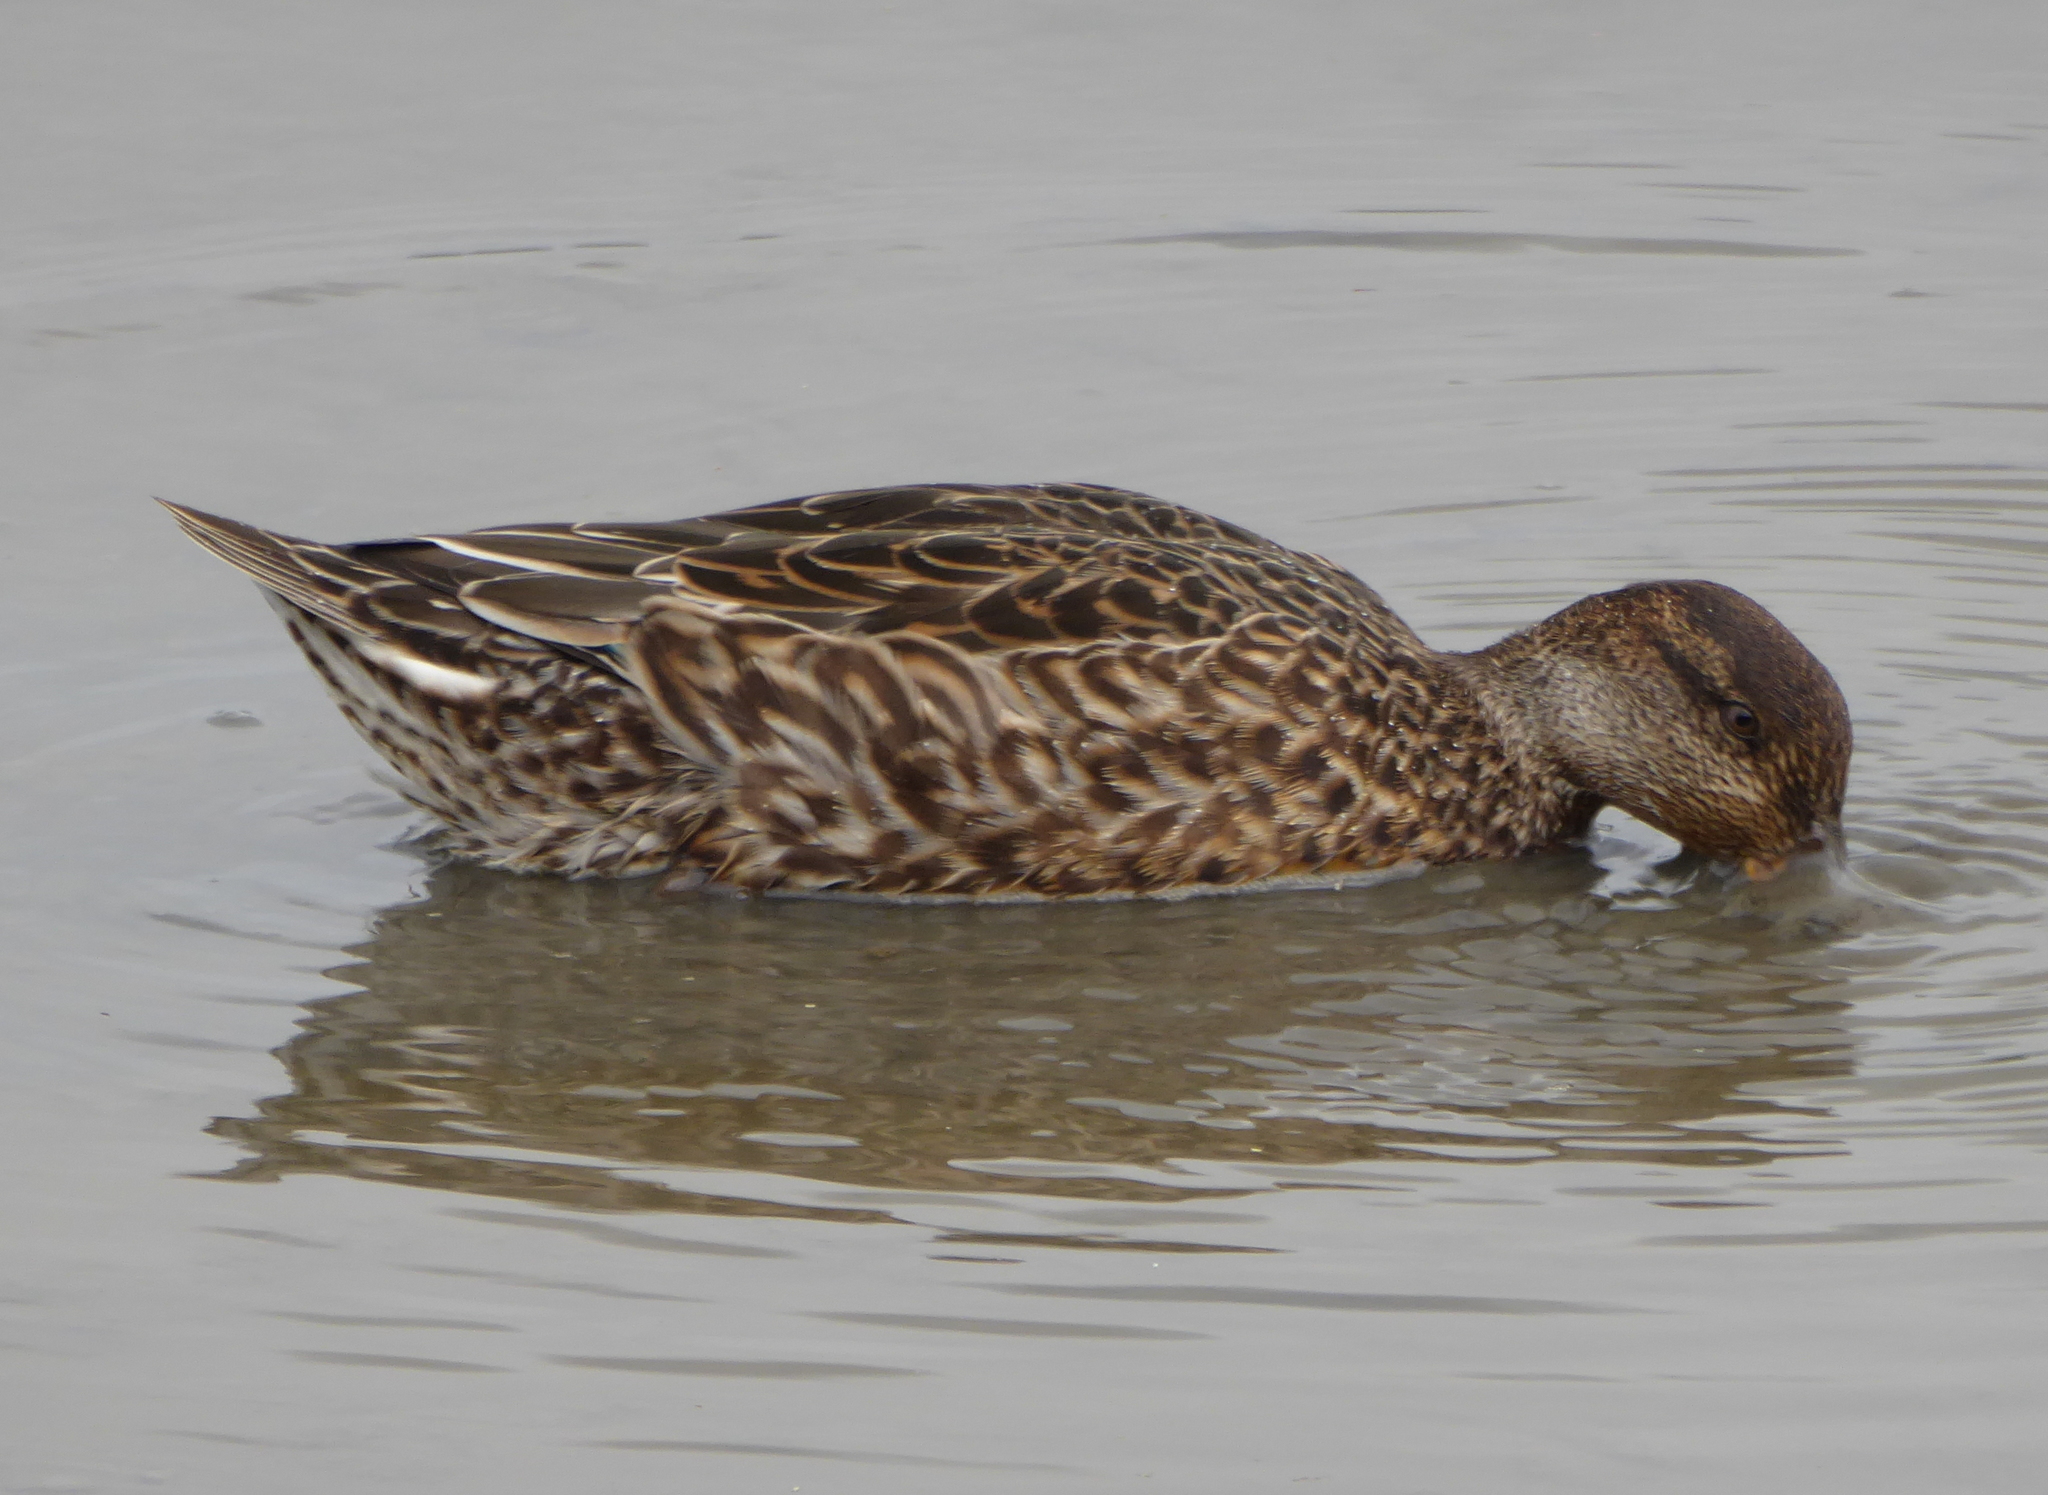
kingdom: Animalia
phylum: Chordata
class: Aves
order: Anseriformes
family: Anatidae
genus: Anas
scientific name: Anas crecca
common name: Eurasian teal
